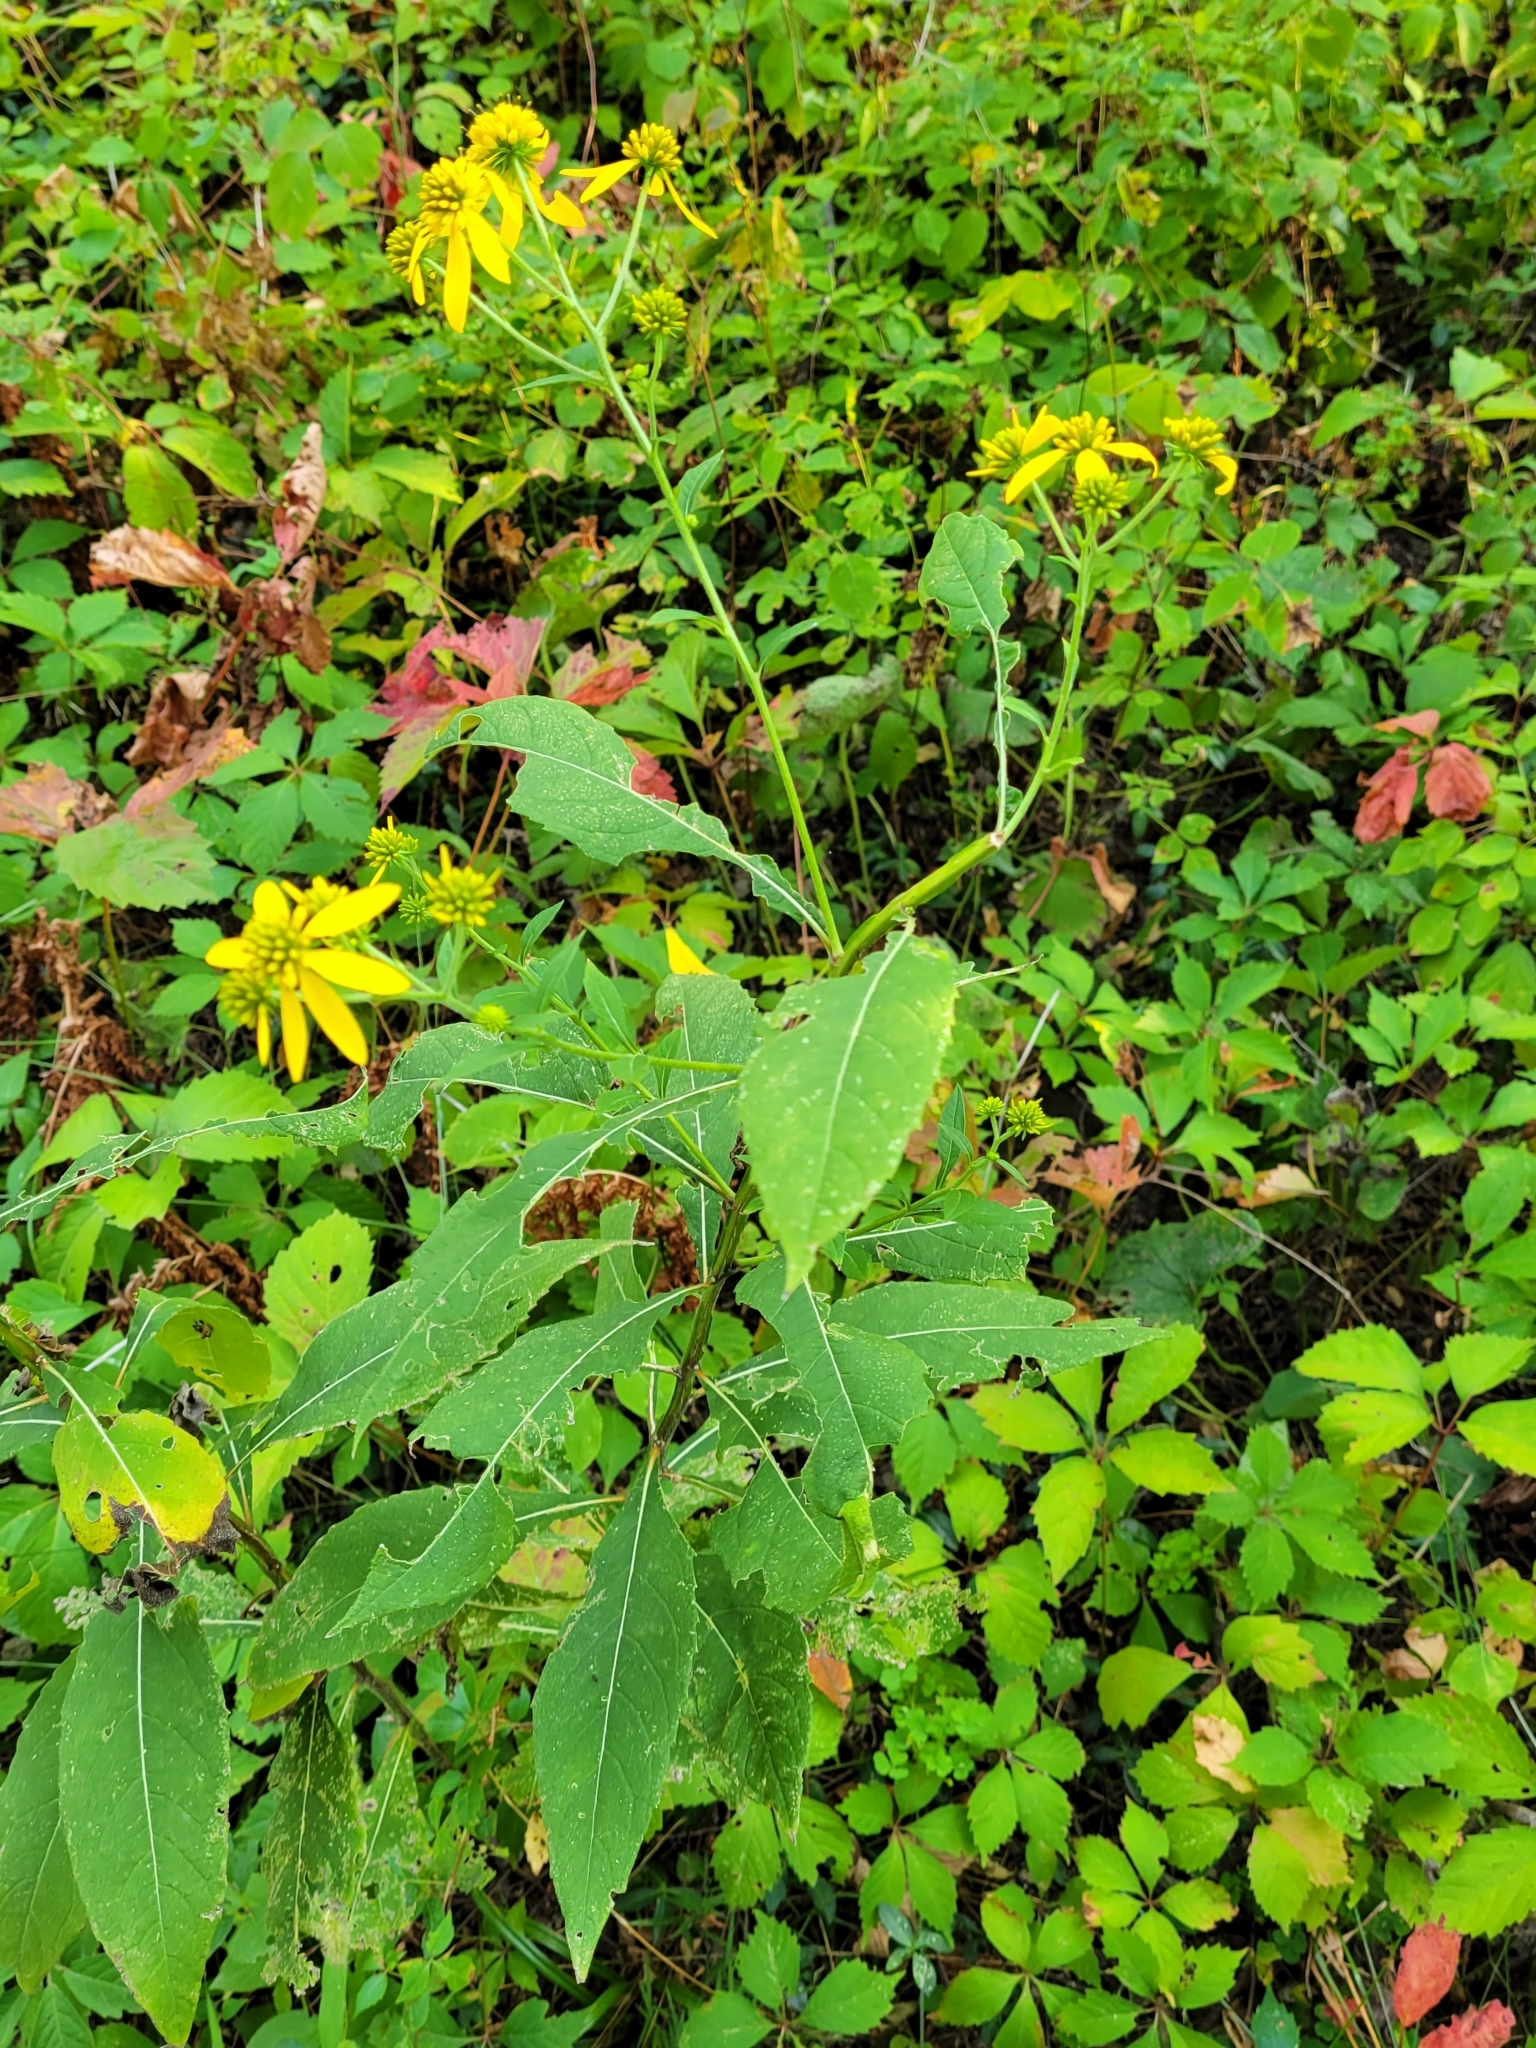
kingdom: Plantae
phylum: Tracheophyta
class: Magnoliopsida
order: Asterales
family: Asteraceae
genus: Verbesina
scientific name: Verbesina alternifolia
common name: Wingstem
